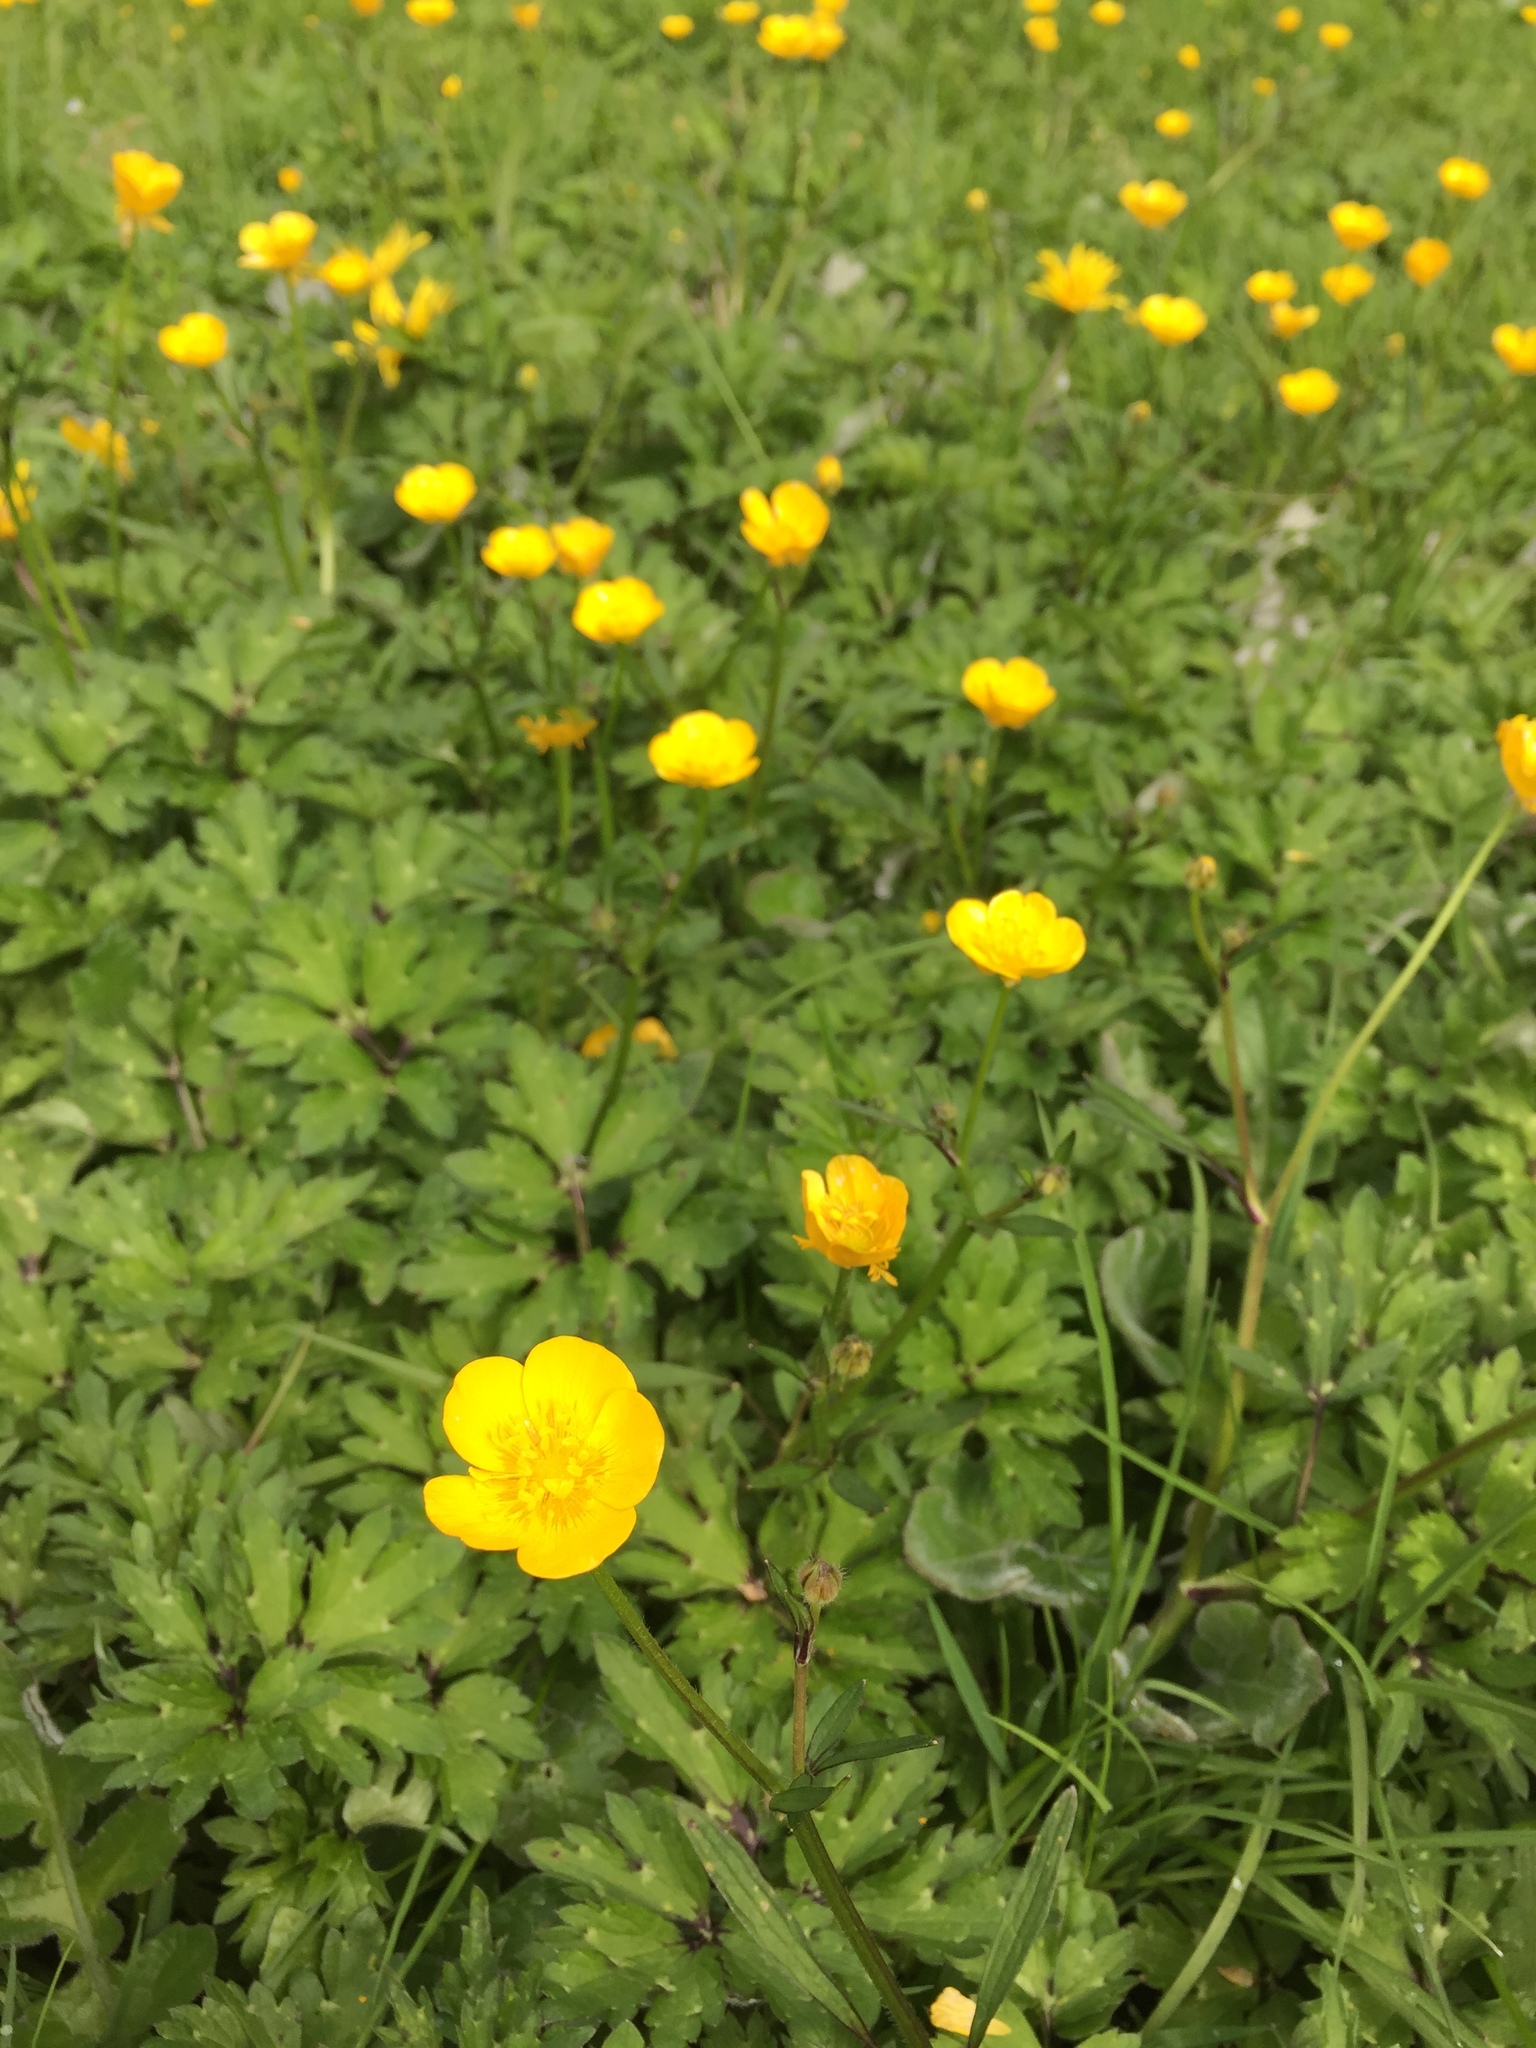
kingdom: Plantae
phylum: Tracheophyta
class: Magnoliopsida
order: Ranunculales
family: Ranunculaceae
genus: Ranunculus
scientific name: Ranunculus repens
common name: Creeping buttercup
